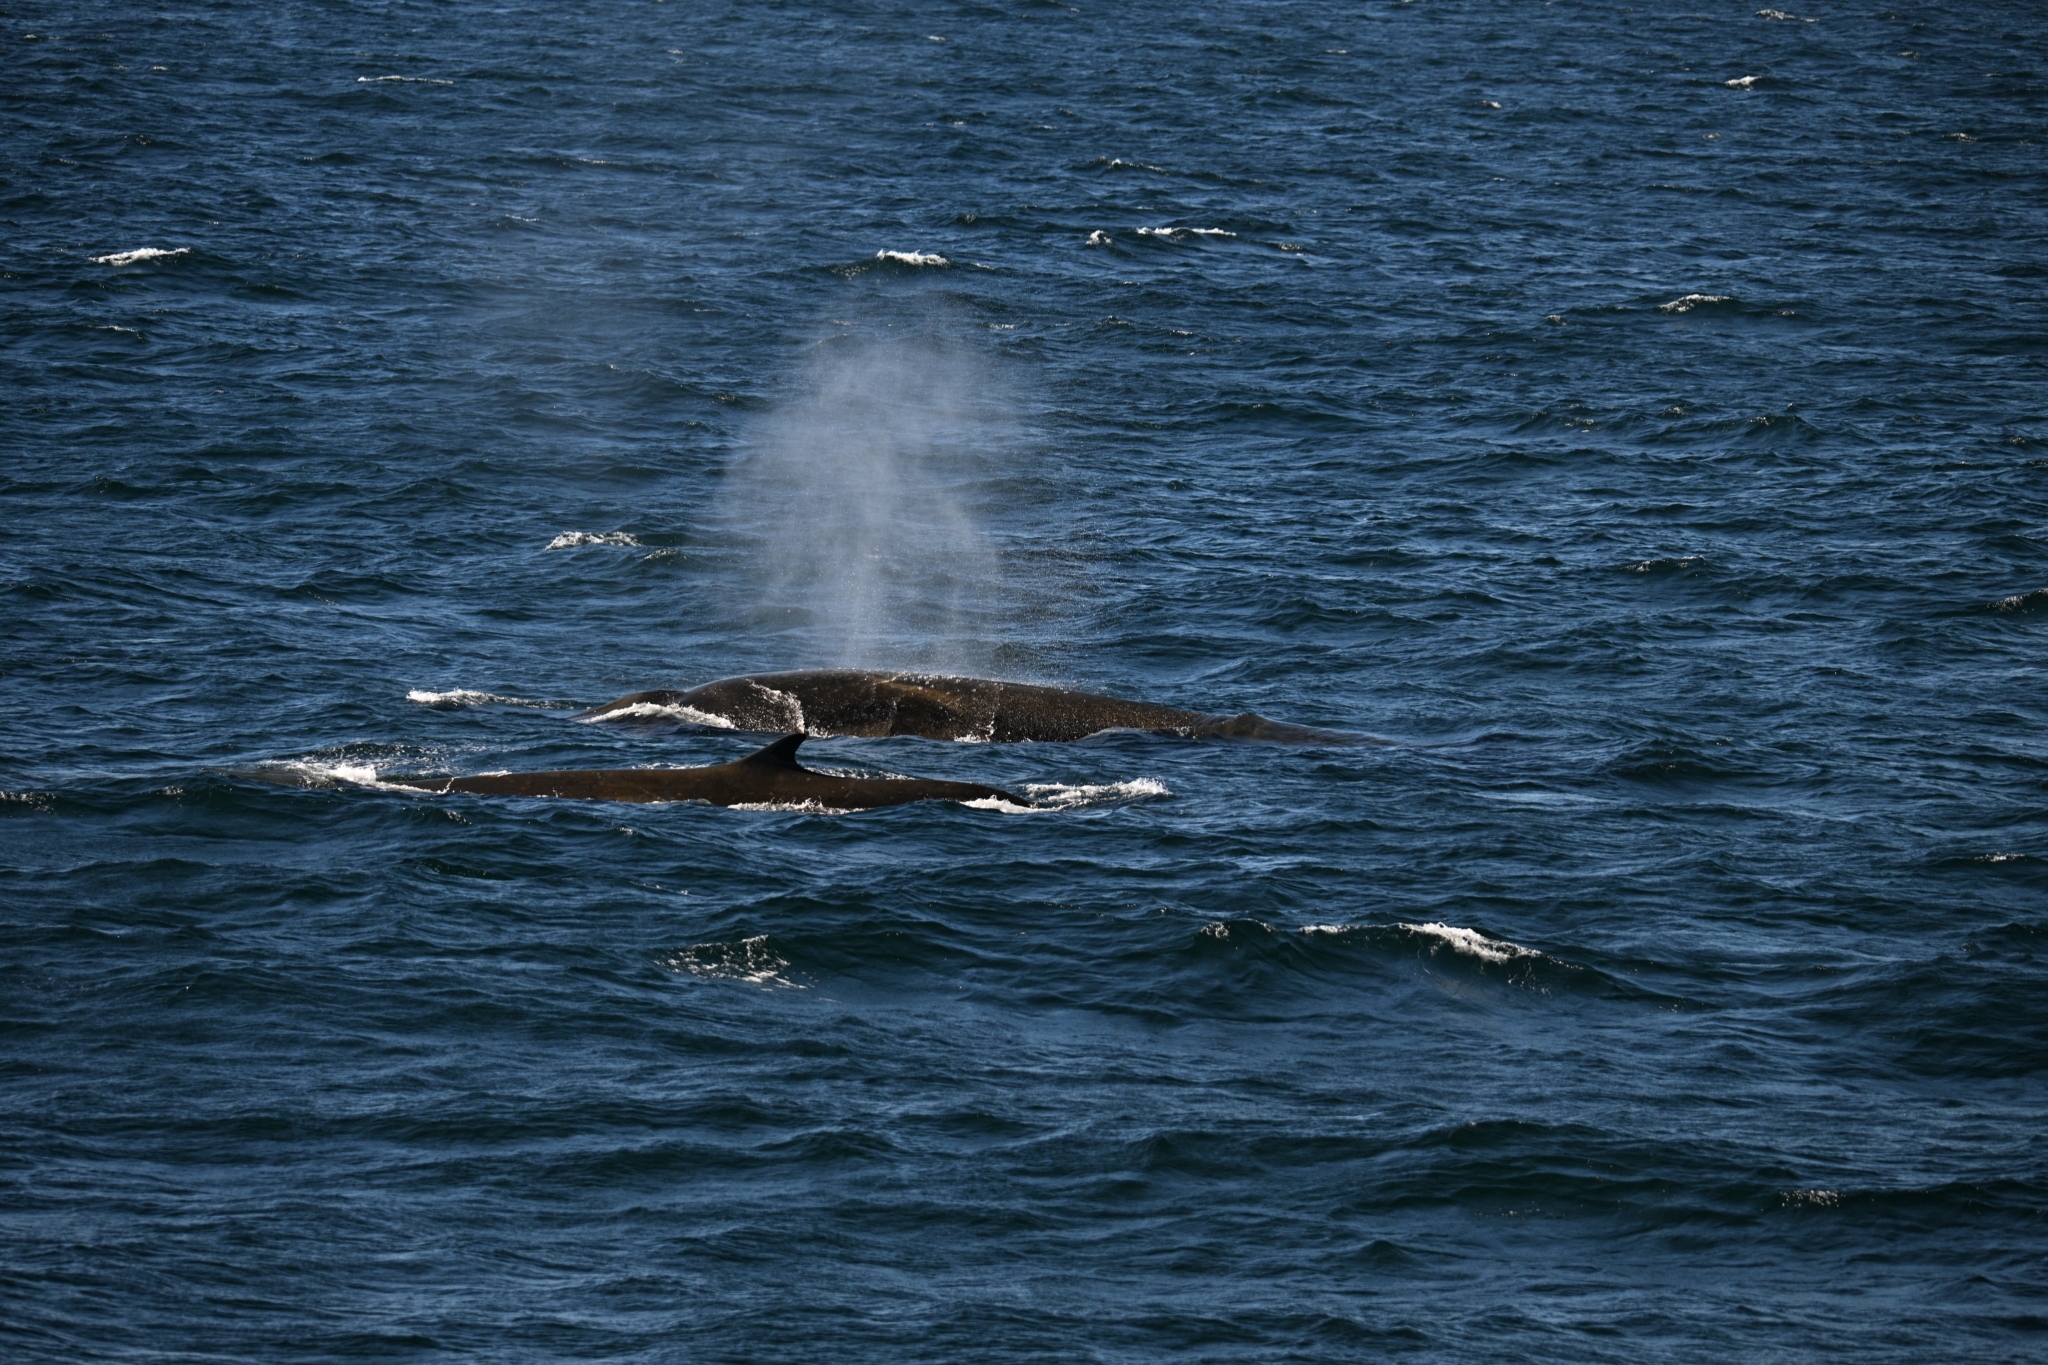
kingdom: Animalia
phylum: Chordata
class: Mammalia
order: Cetacea
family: Balaenopteridae
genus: Balaenoptera
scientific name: Balaenoptera physalus
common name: Fin whale
